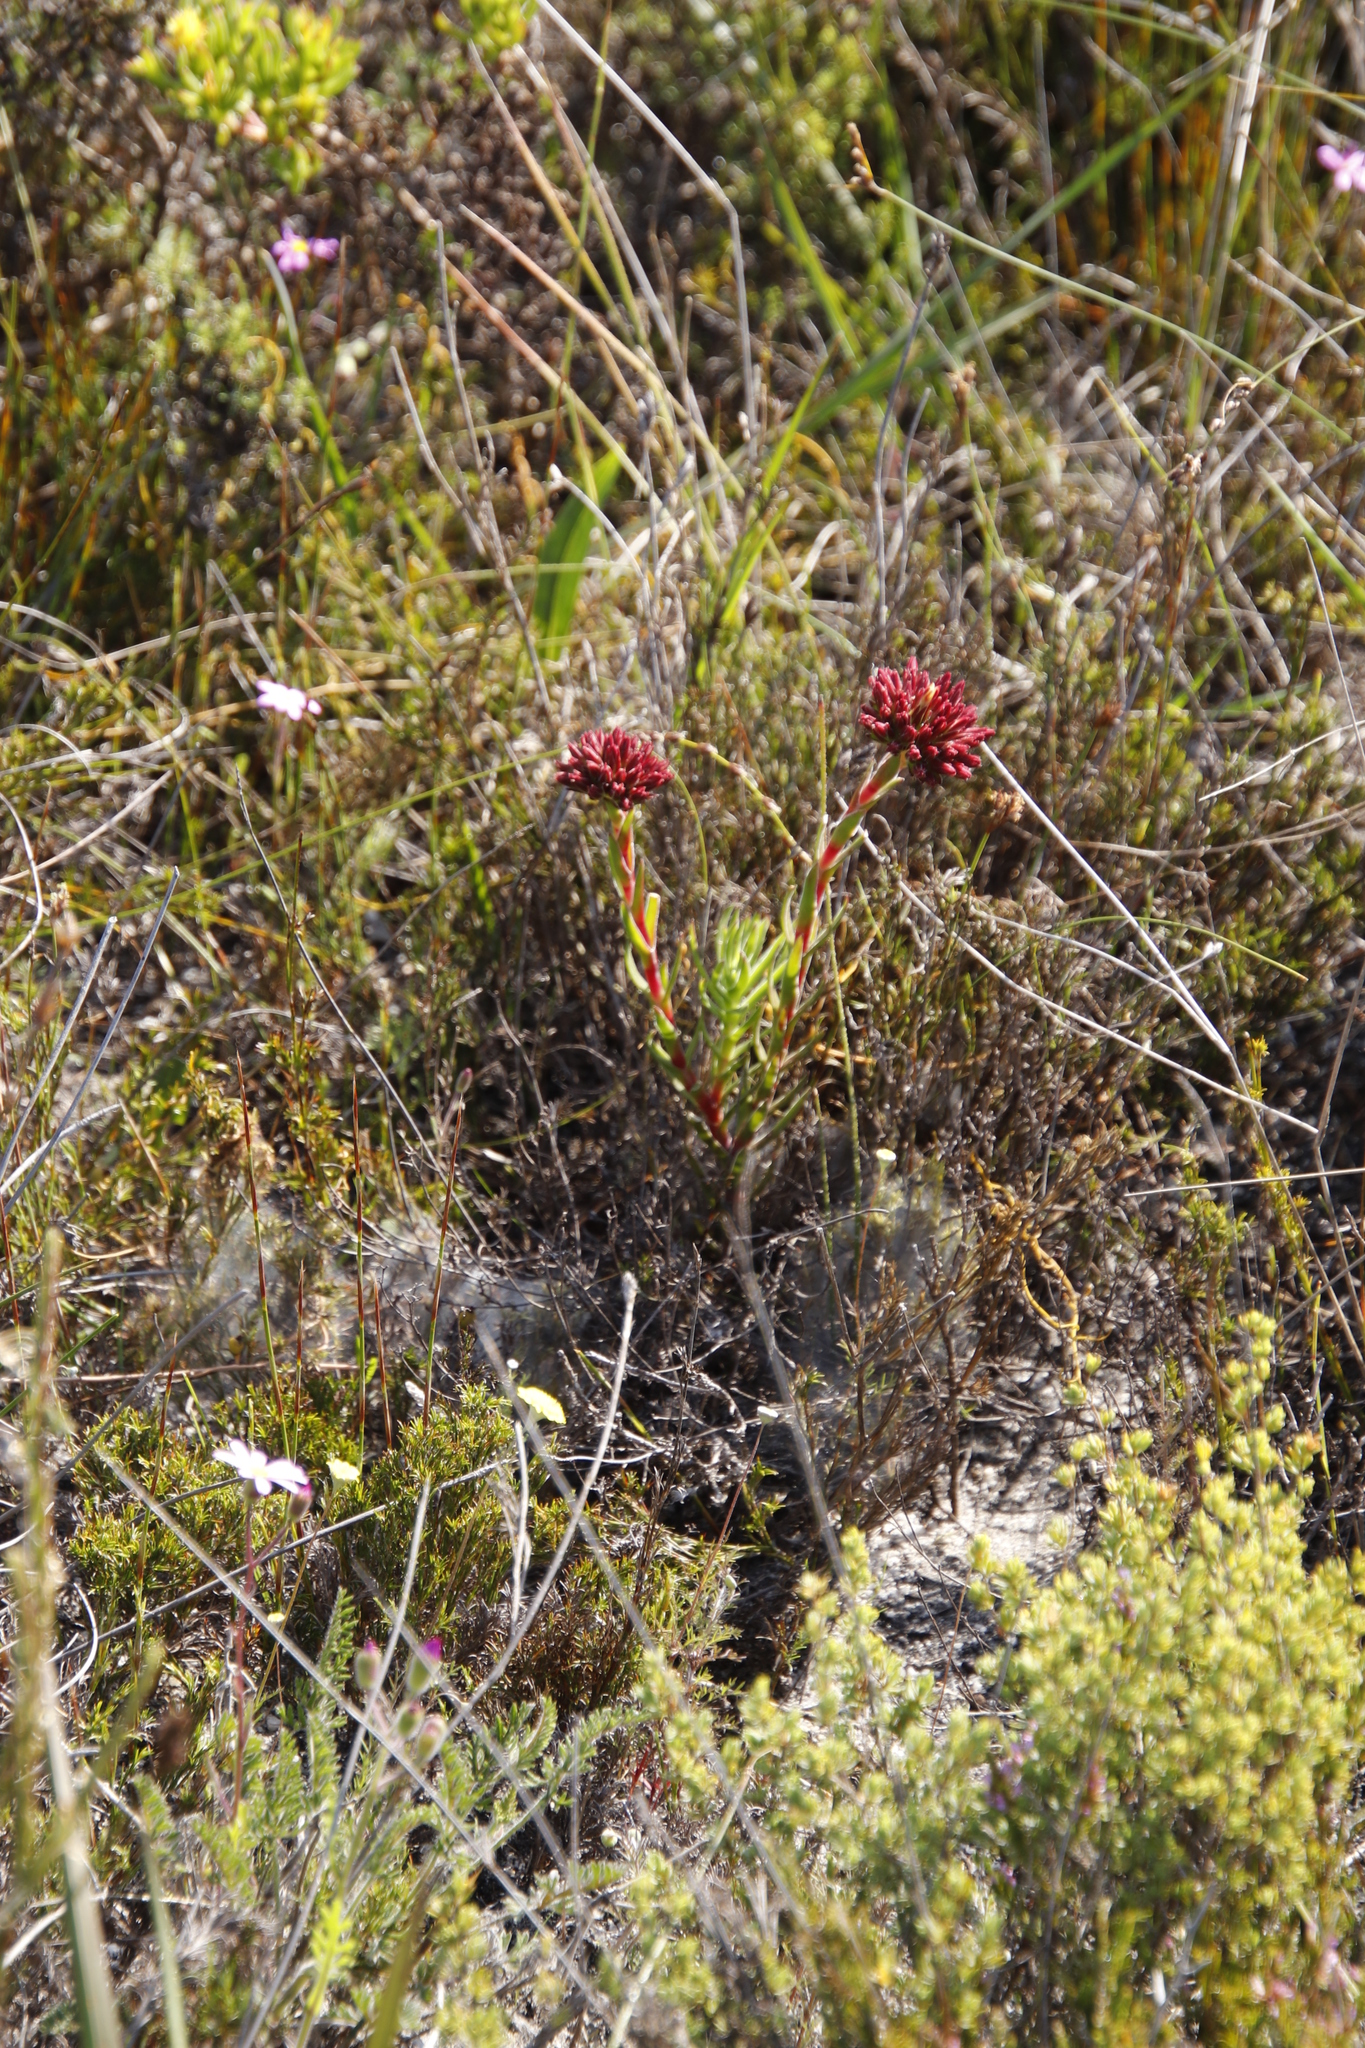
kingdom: Plantae
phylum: Tracheophyta
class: Magnoliopsida
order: Saxifragales
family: Crassulaceae
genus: Crassula
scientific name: Crassula fascicularis
